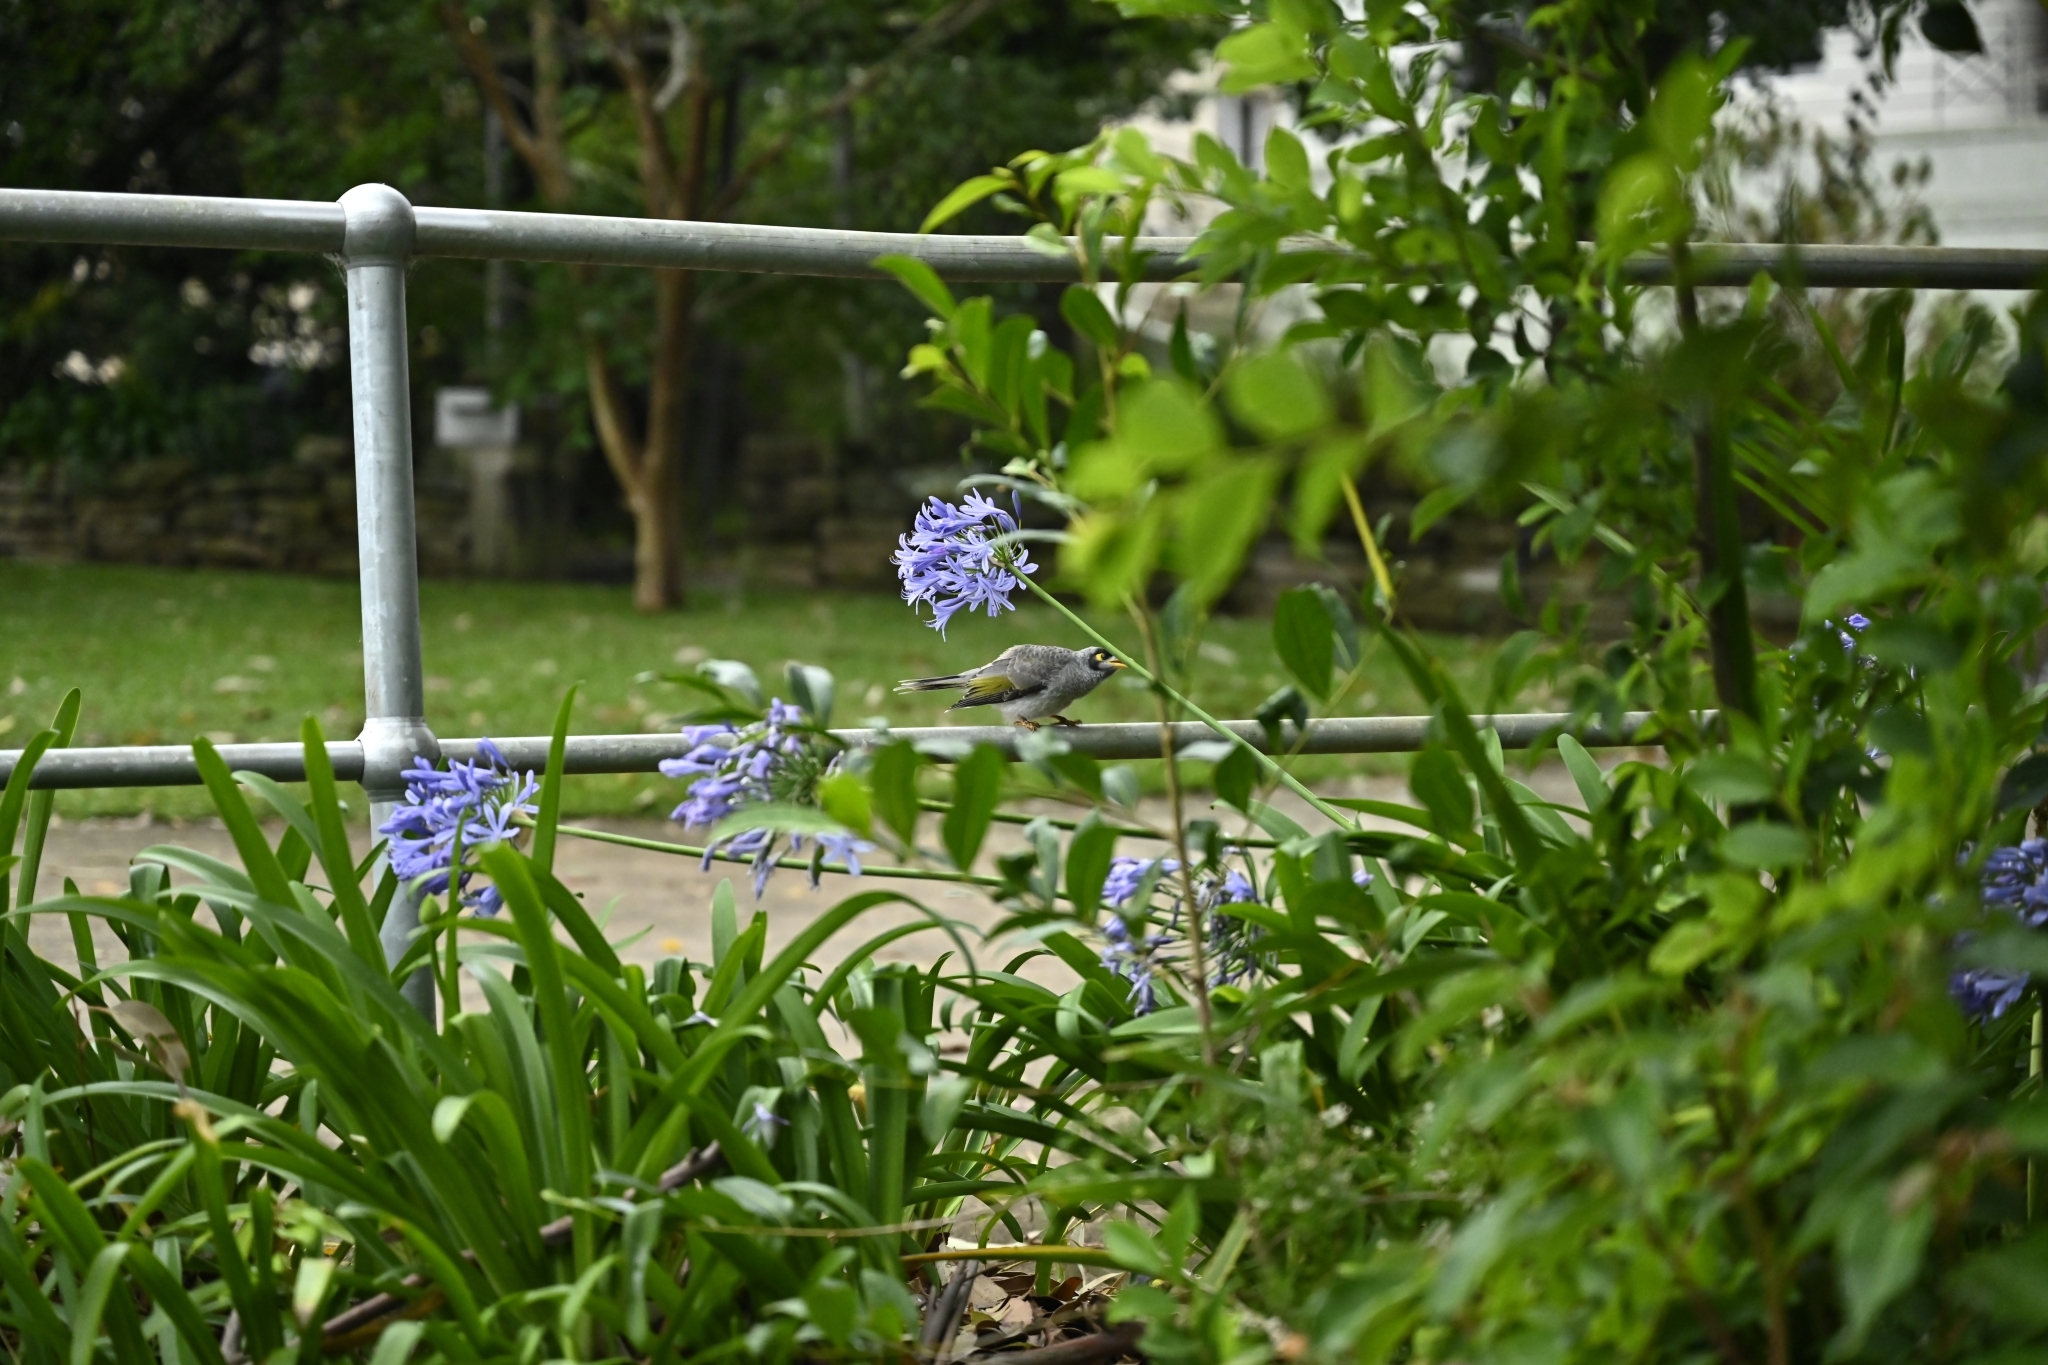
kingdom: Animalia
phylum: Chordata
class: Aves
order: Passeriformes
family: Meliphagidae
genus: Manorina
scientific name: Manorina melanocephala
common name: Noisy miner
